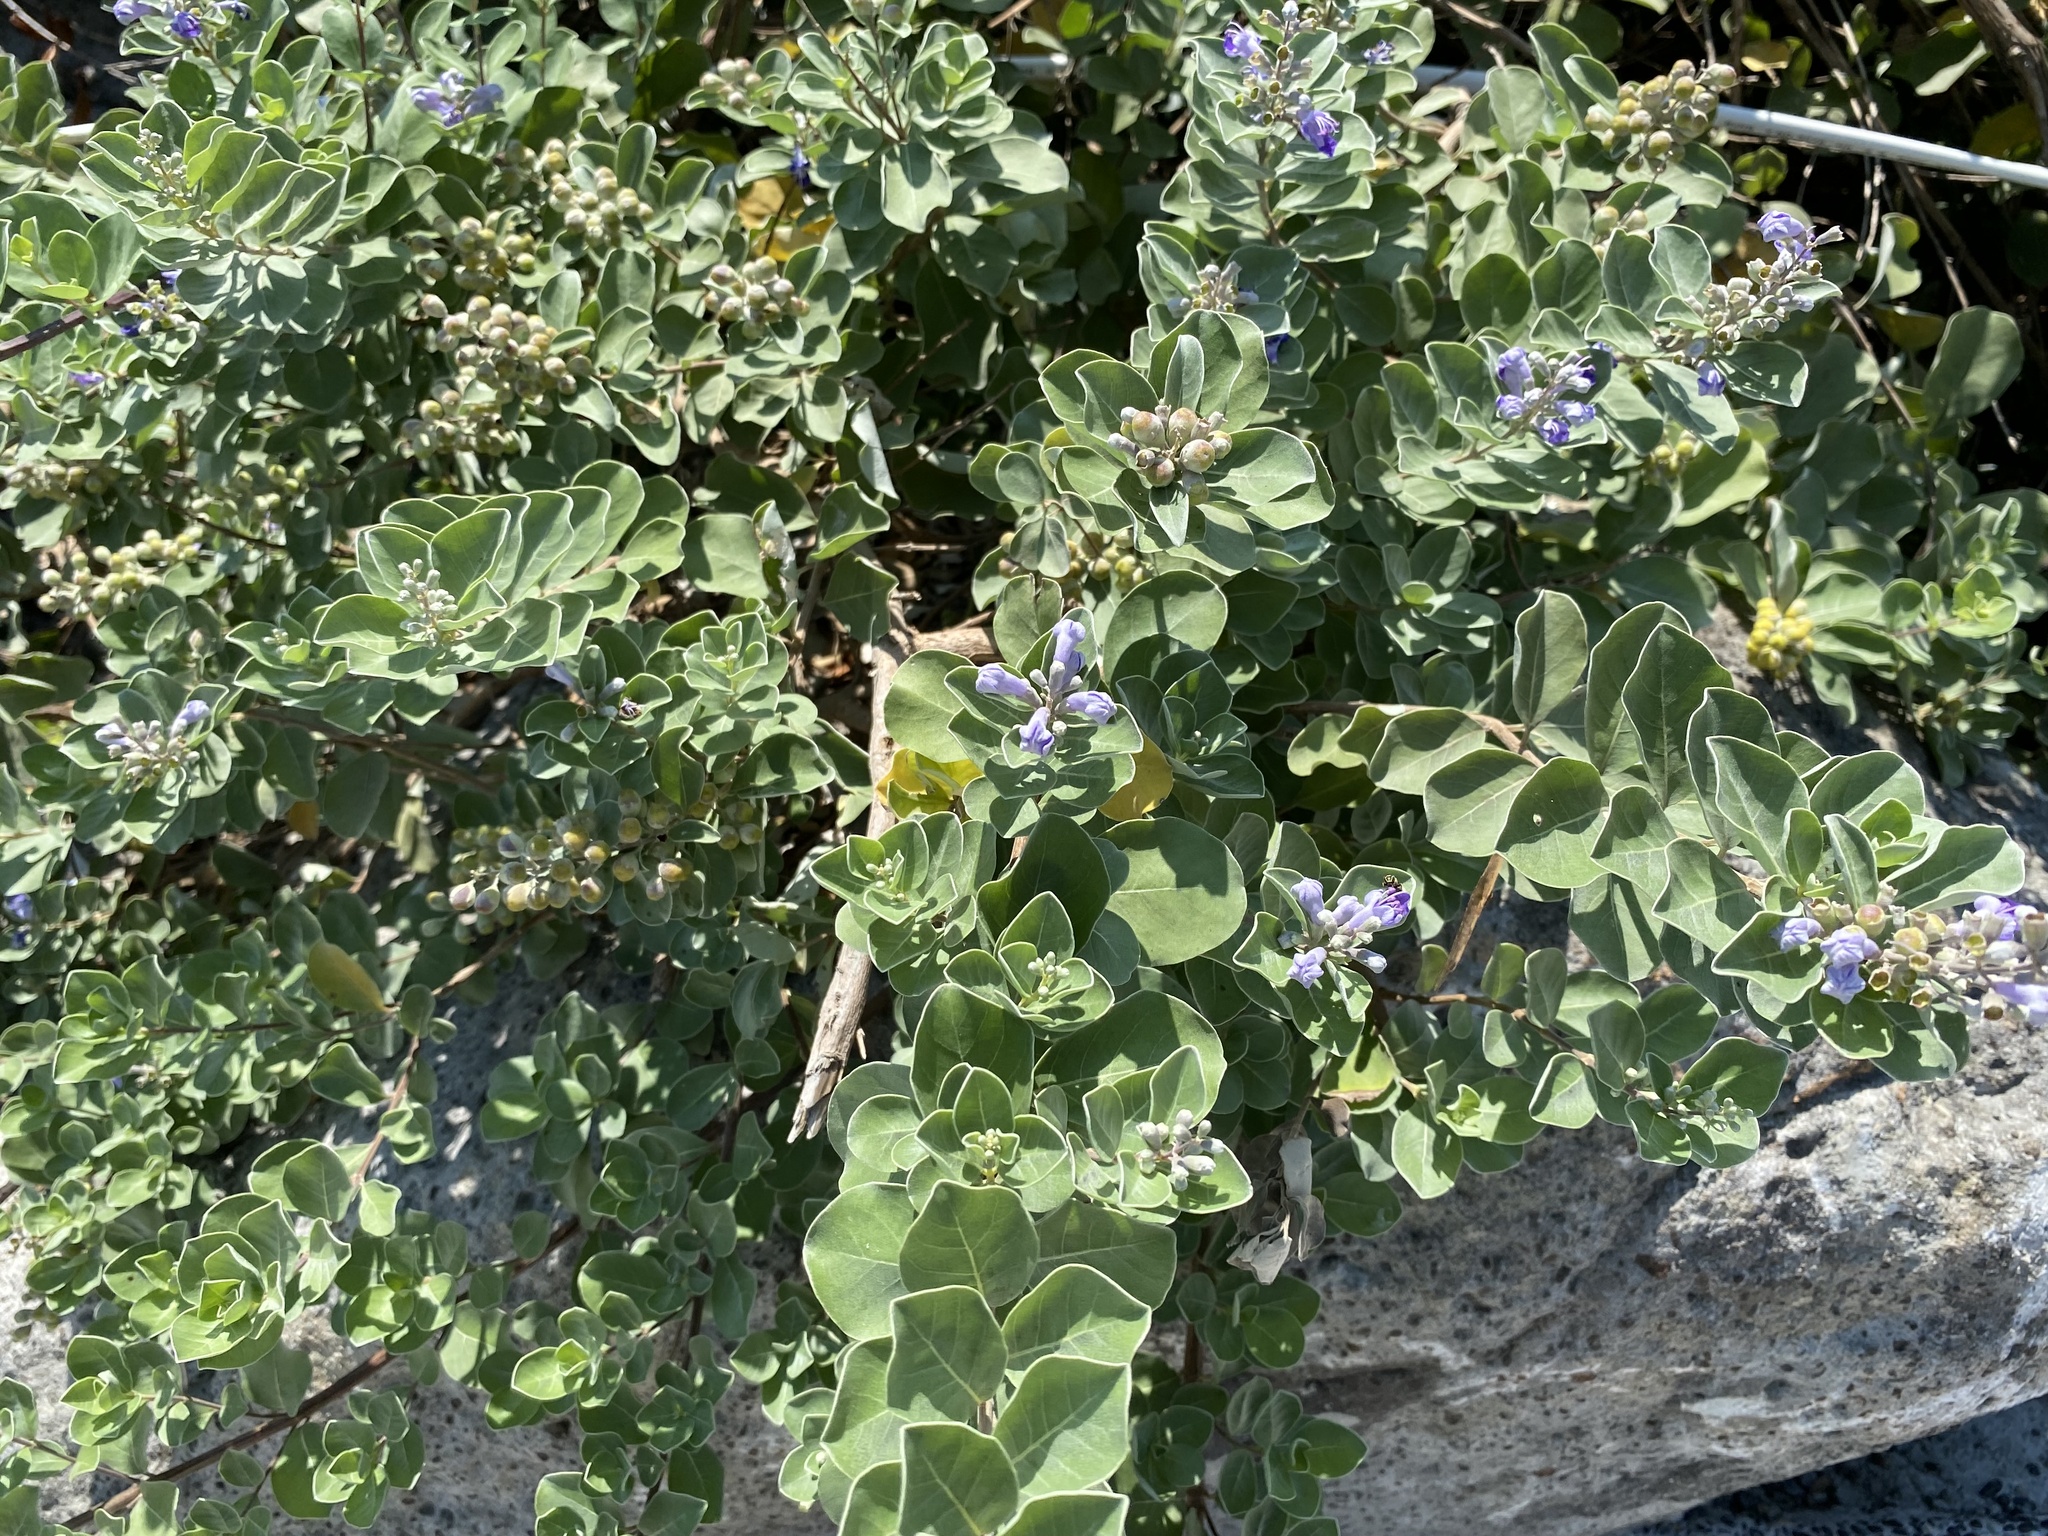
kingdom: Plantae
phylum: Tracheophyta
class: Magnoliopsida
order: Lamiales
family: Lamiaceae
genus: Vitex
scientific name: Vitex rotundifolia
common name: Beach vitex
